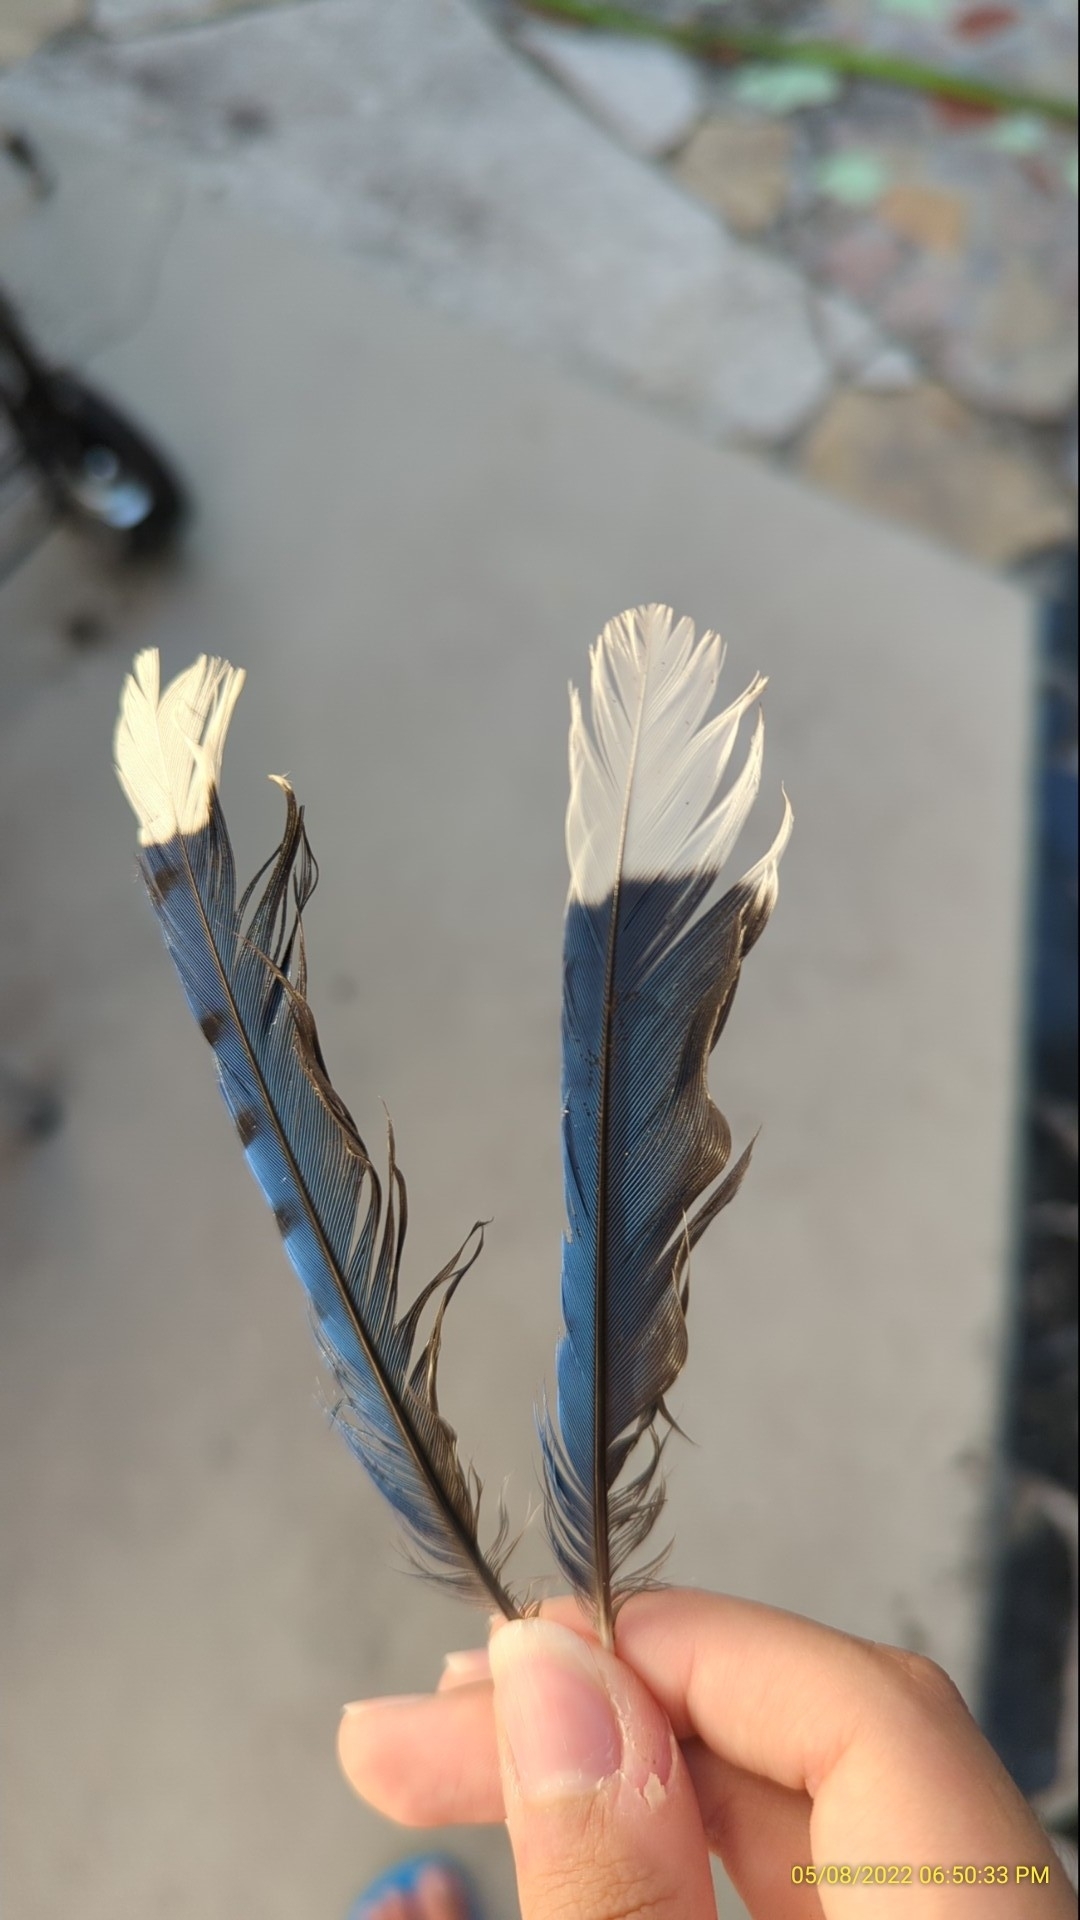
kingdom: Animalia
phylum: Chordata
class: Aves
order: Passeriformes
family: Corvidae
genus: Cyanocitta
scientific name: Cyanocitta cristata
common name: Blue jay
